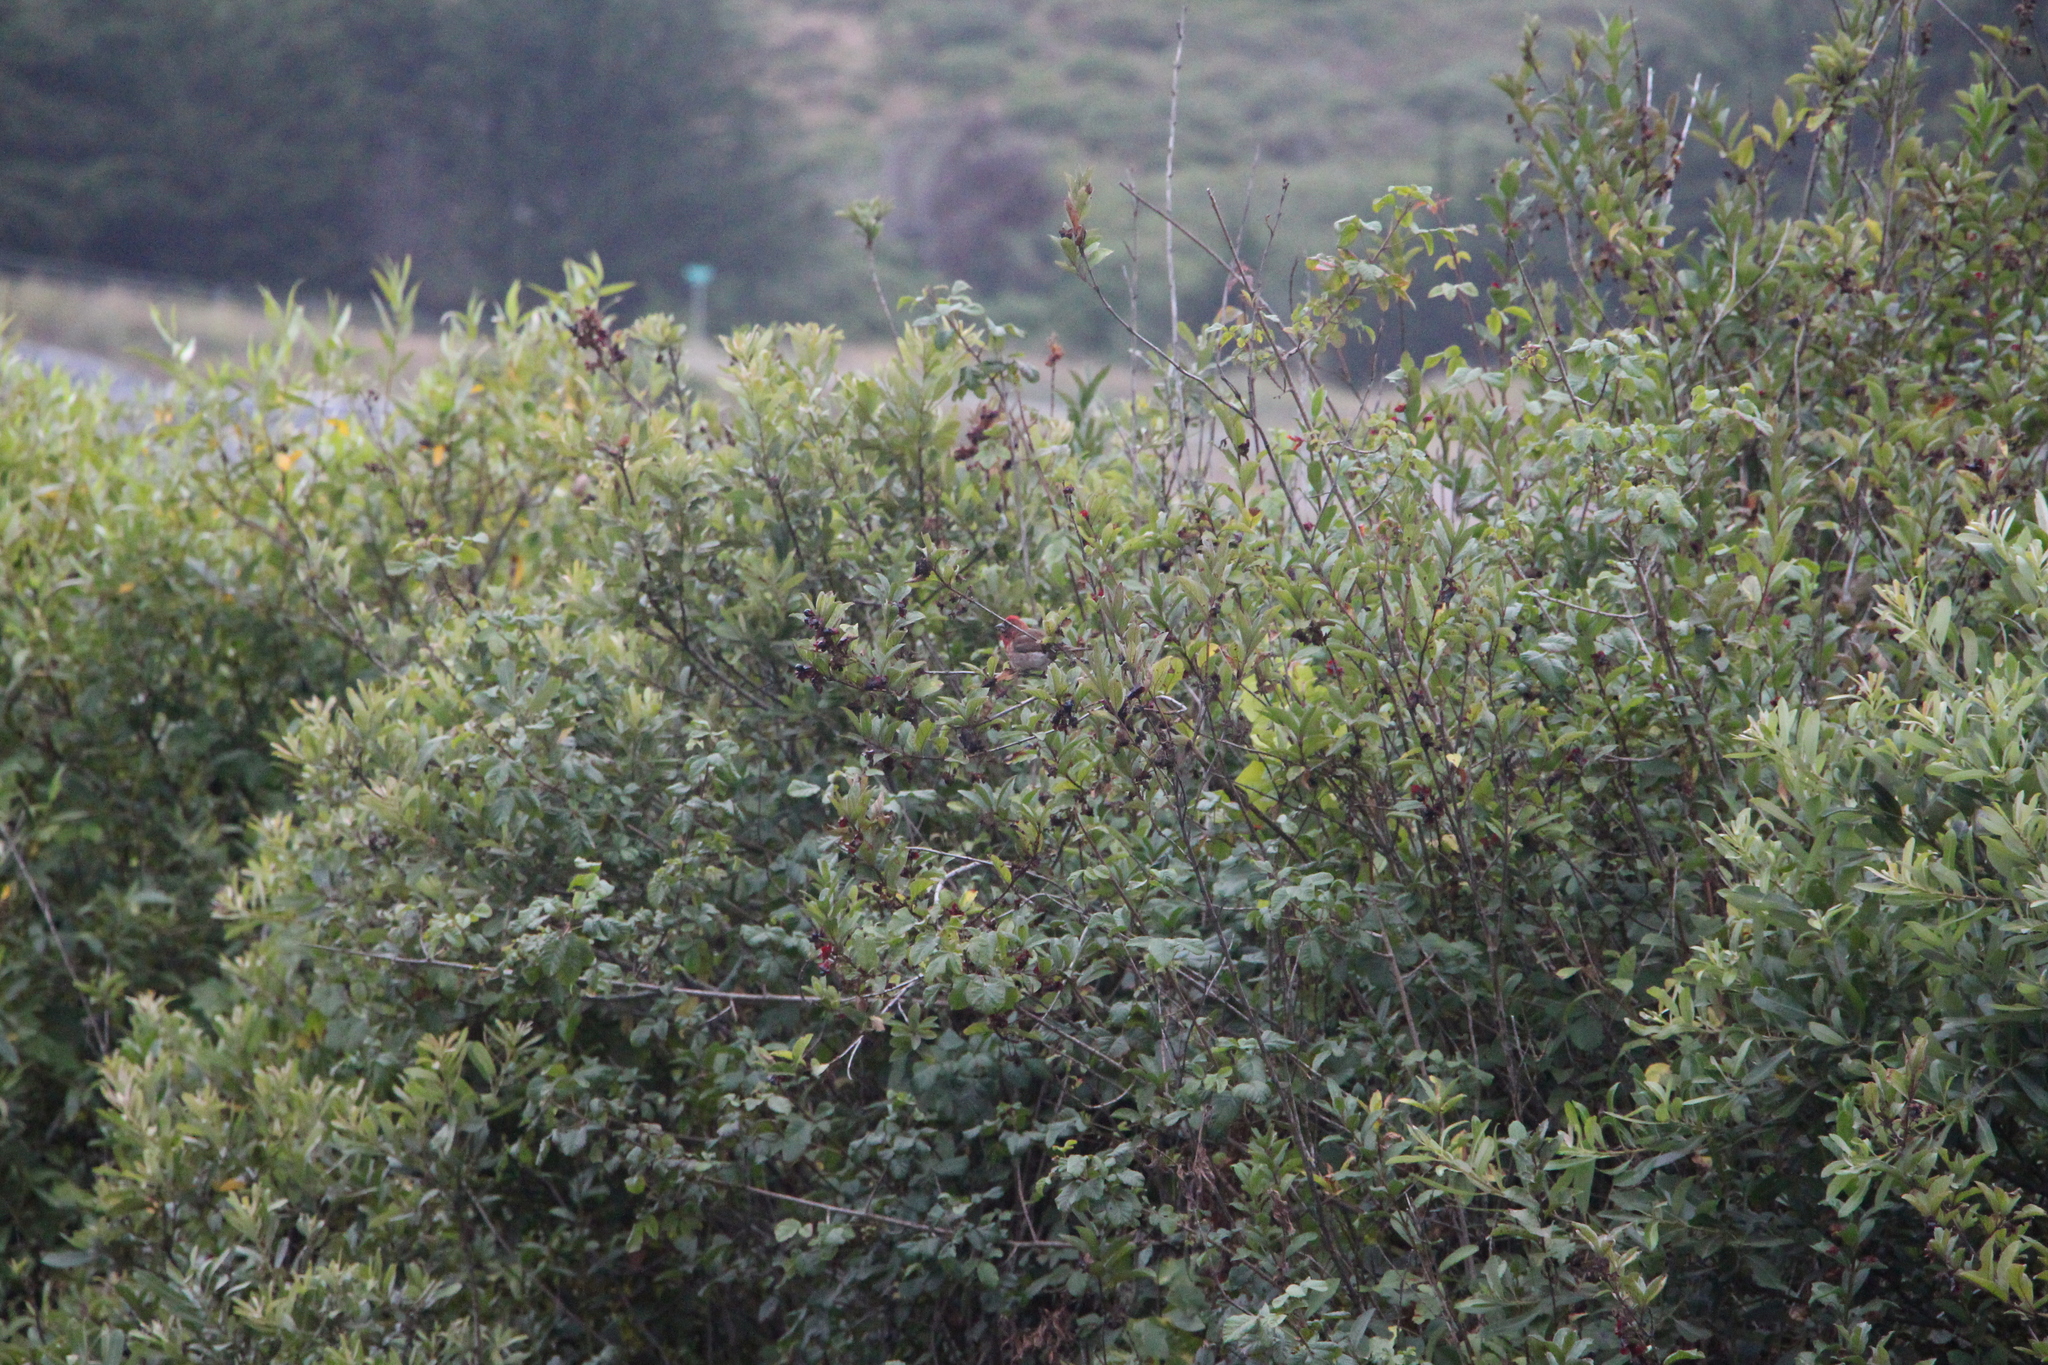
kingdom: Animalia
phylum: Chordata
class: Aves
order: Passeriformes
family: Fringillidae
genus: Haemorhous
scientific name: Haemorhous mexicanus
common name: House finch
